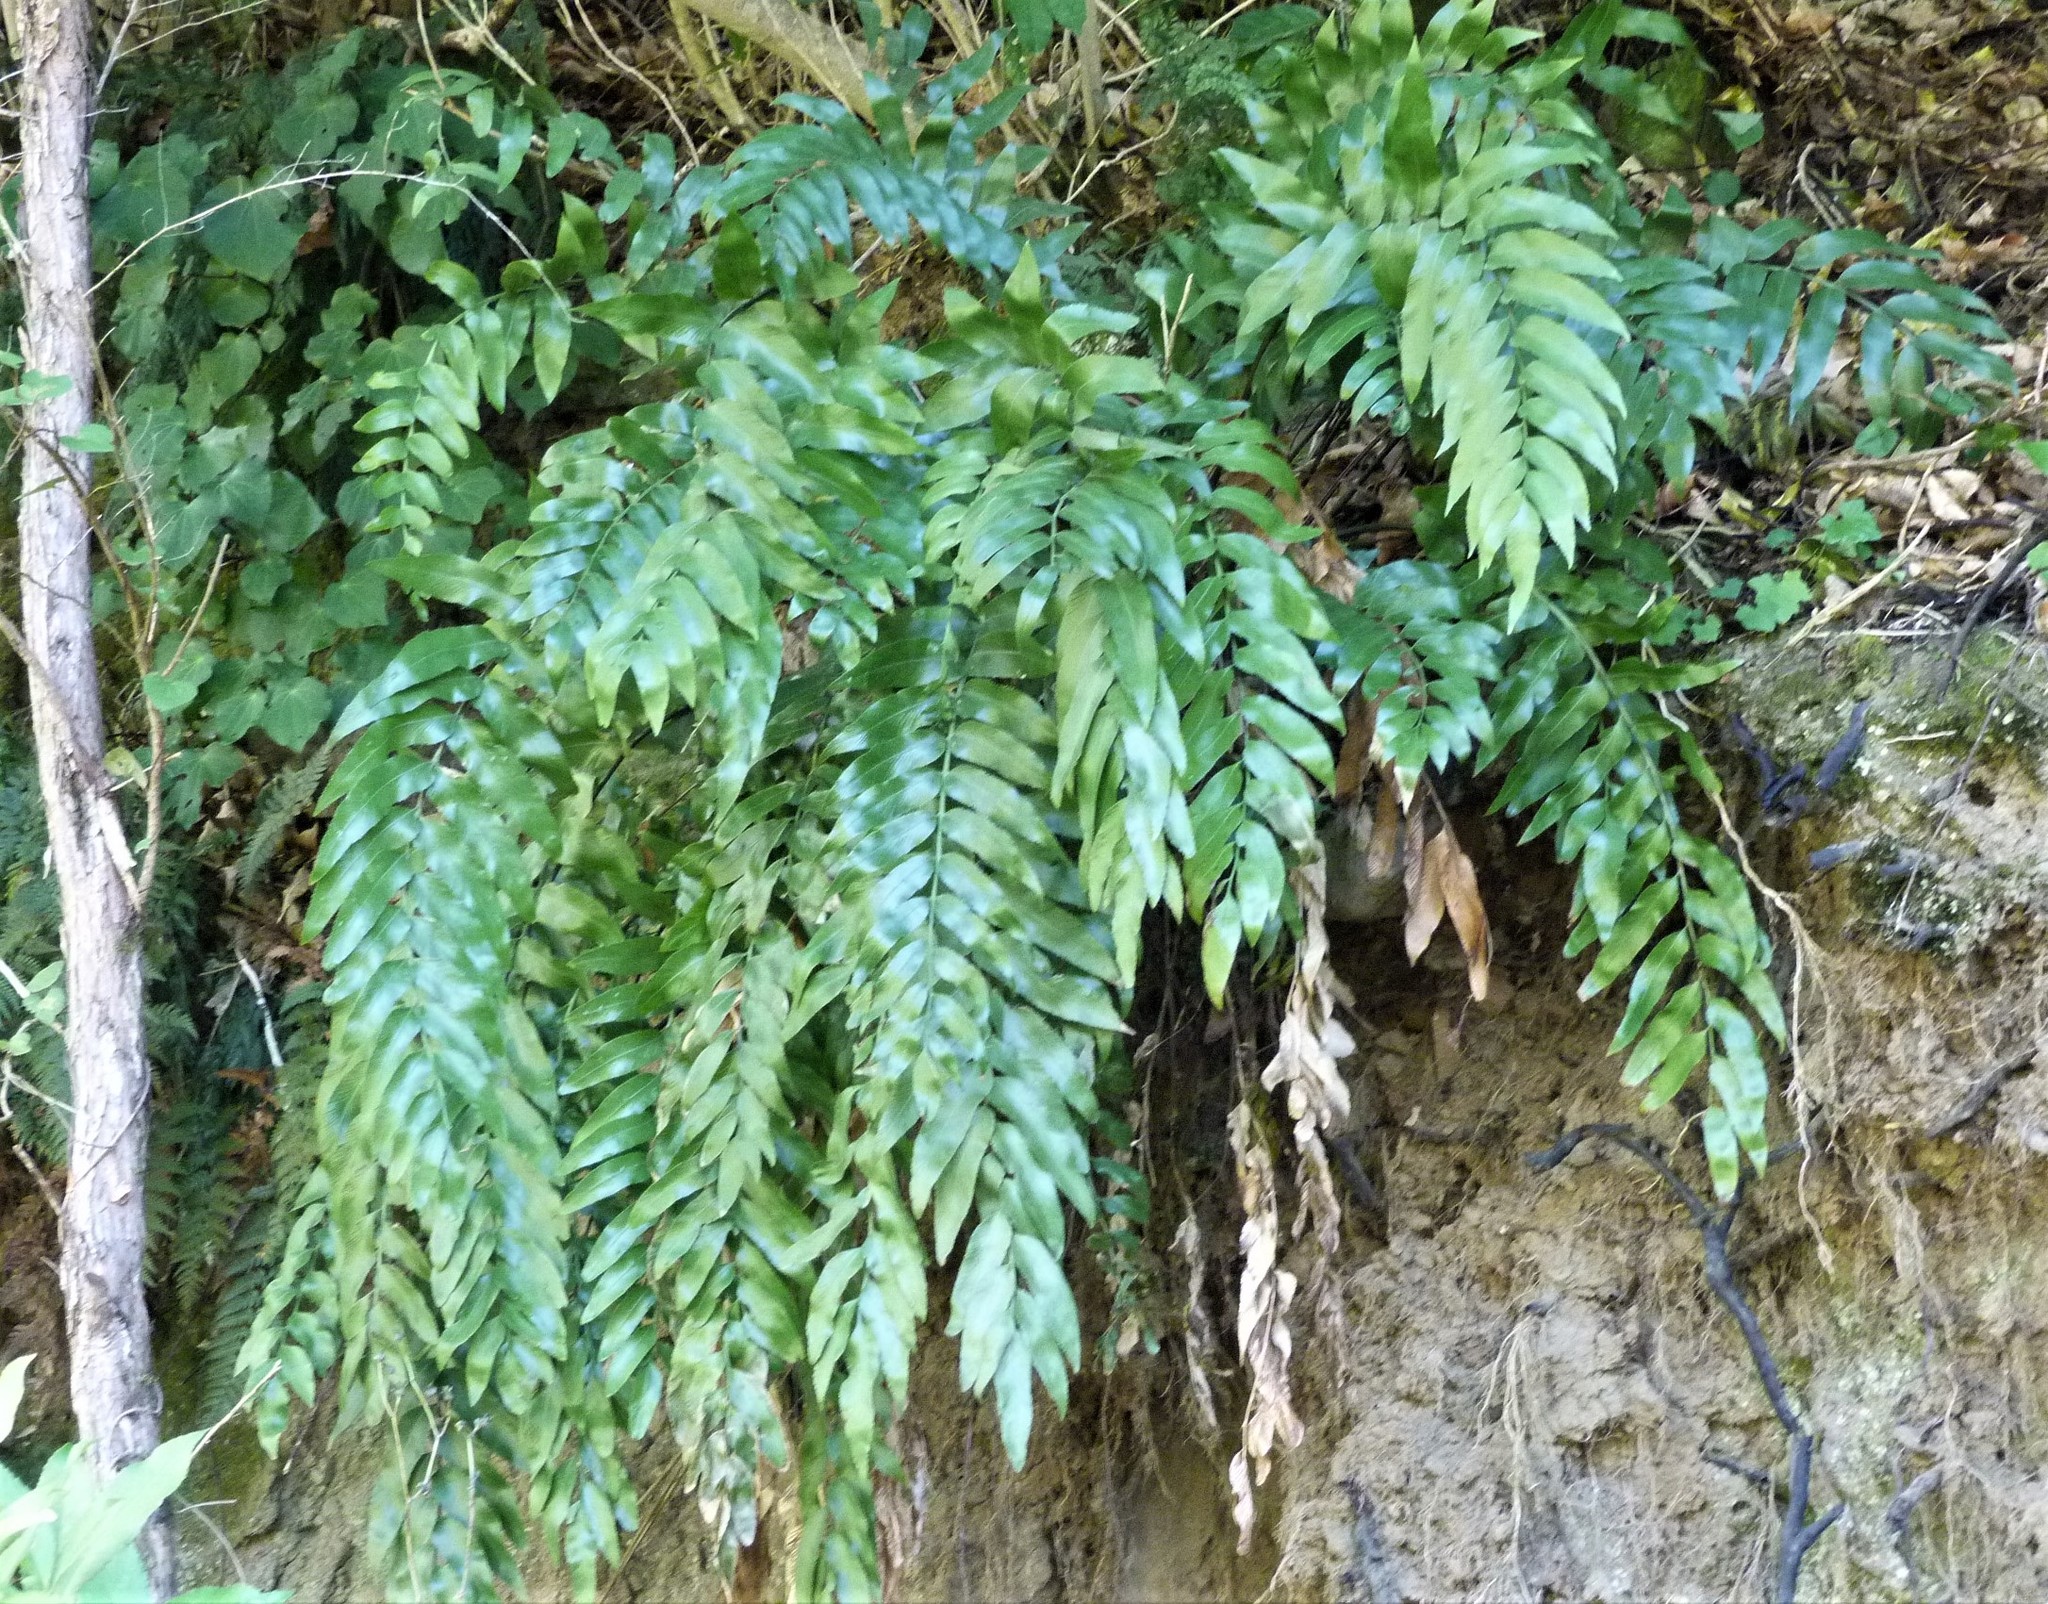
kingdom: Plantae
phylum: Tracheophyta
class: Polypodiopsida
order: Polypodiales
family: Aspleniaceae
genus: Asplenium
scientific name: Asplenium oblongifolium
